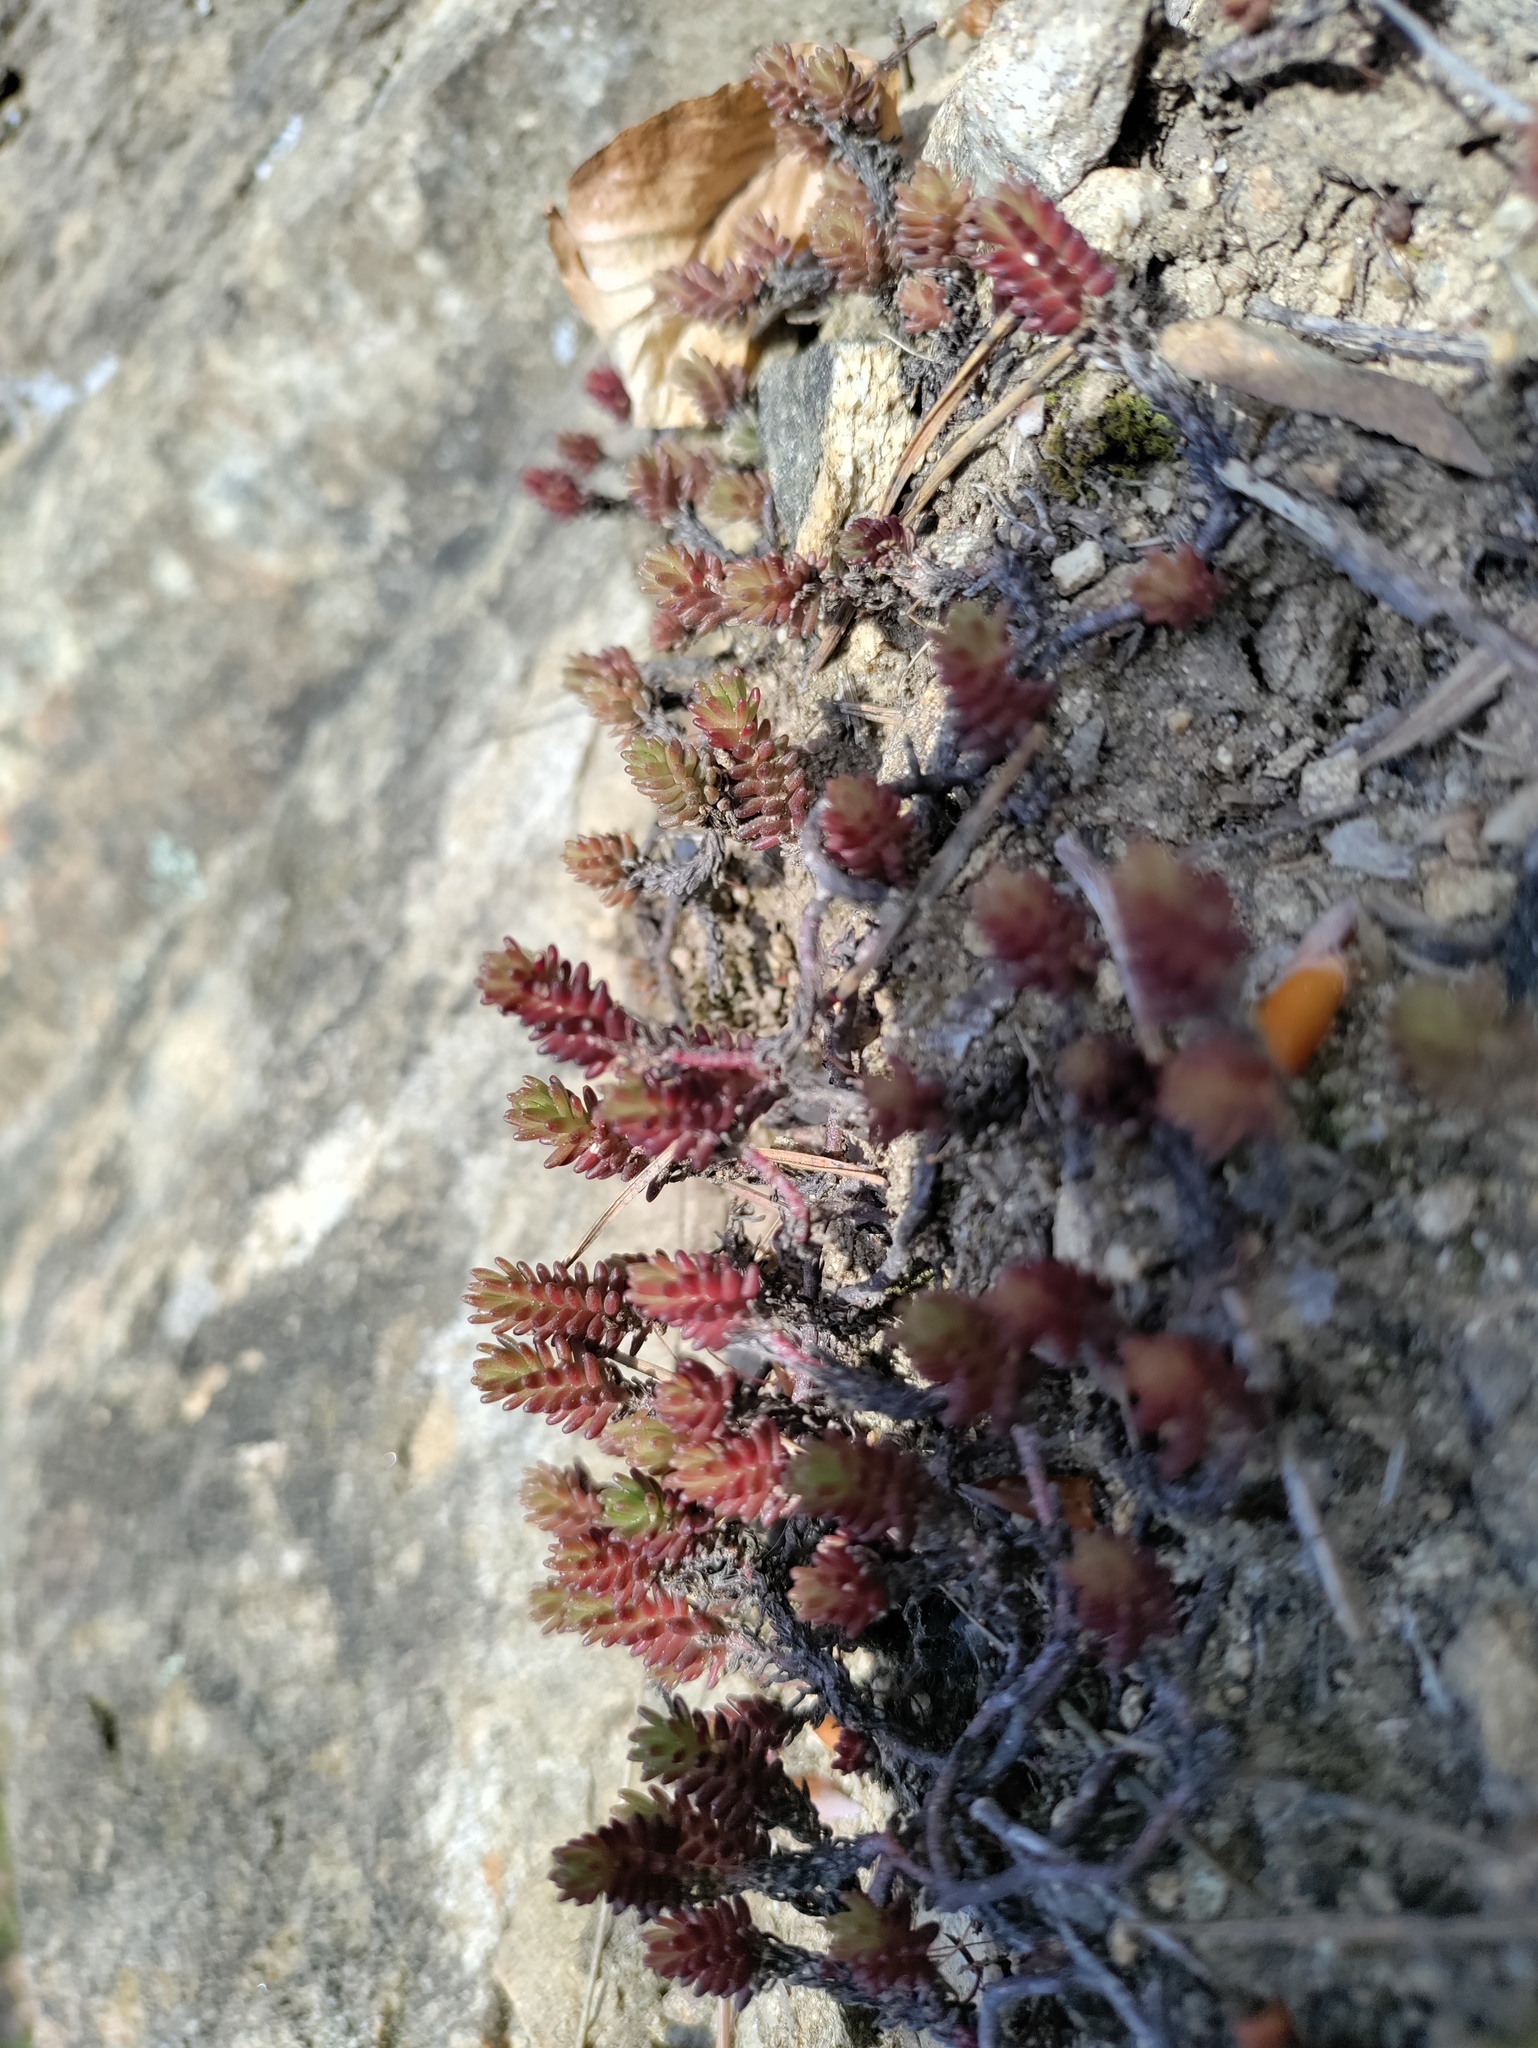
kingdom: Plantae
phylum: Tracheophyta
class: Magnoliopsida
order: Saxifragales
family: Crassulaceae
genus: Sedum
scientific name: Sedum sexangulare
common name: Tasteless stonecrop
